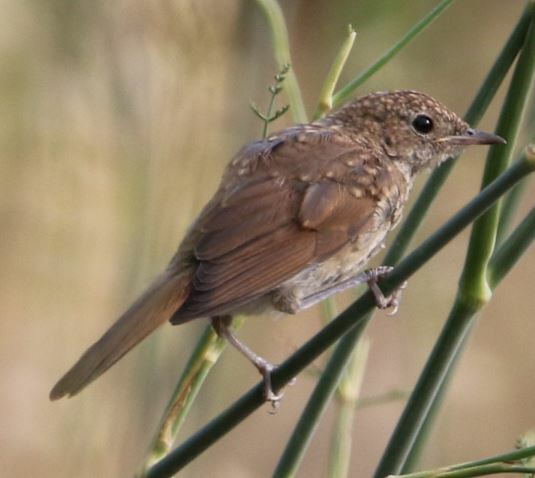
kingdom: Animalia
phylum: Chordata
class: Aves
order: Passeriformes
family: Muscicapidae
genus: Luscinia
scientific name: Luscinia megarhynchos
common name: Common nightingale
